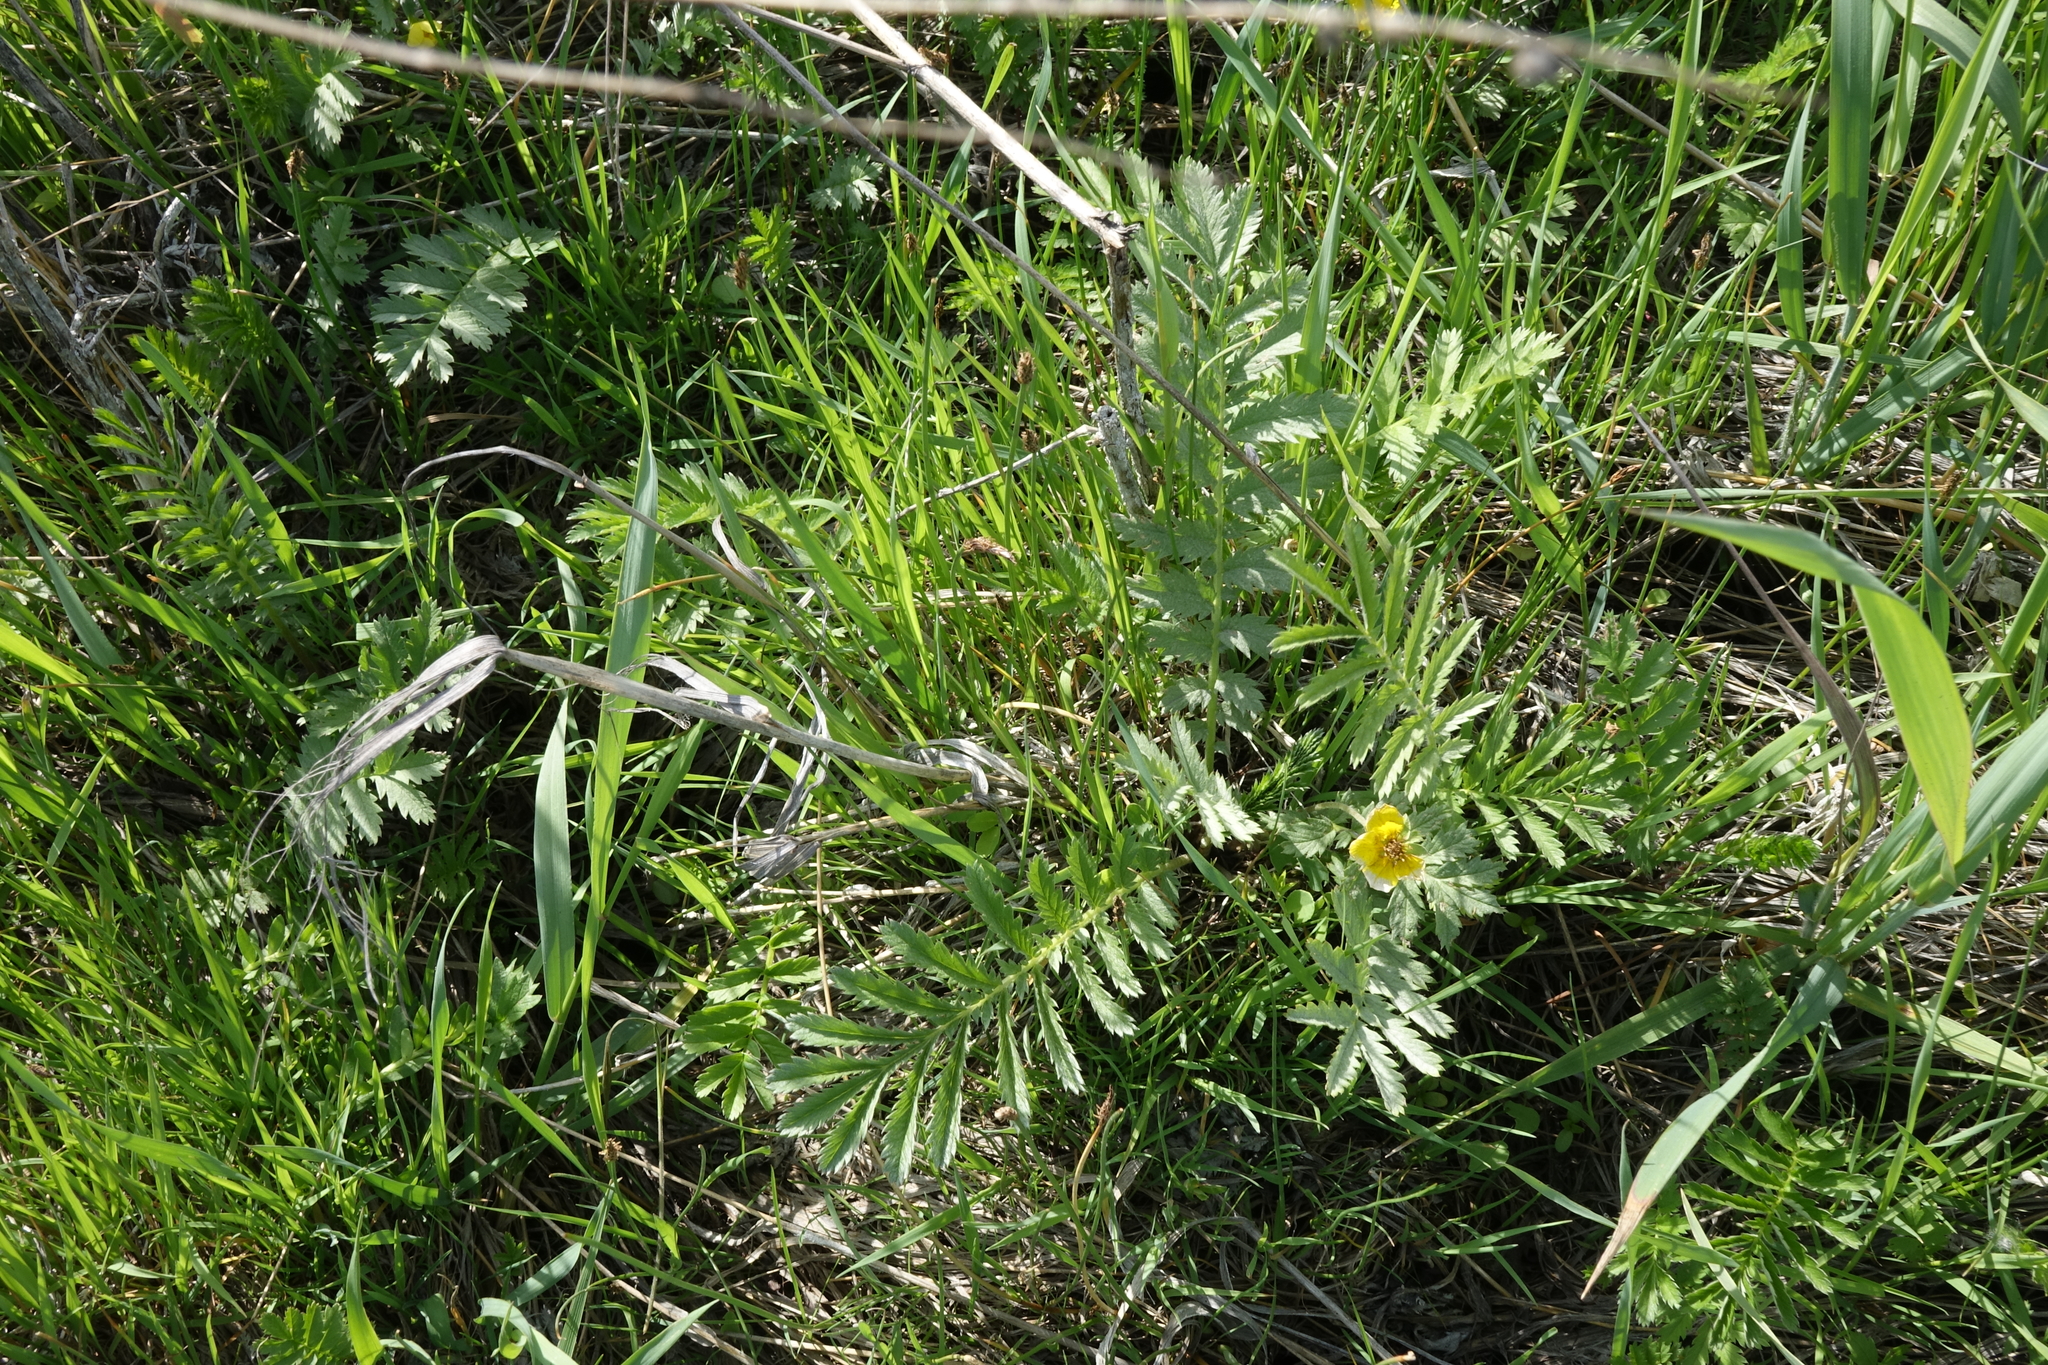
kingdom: Plantae
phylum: Tracheophyta
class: Magnoliopsida
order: Rosales
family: Rosaceae
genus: Argentina
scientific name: Argentina anserina
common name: Common silverweed
